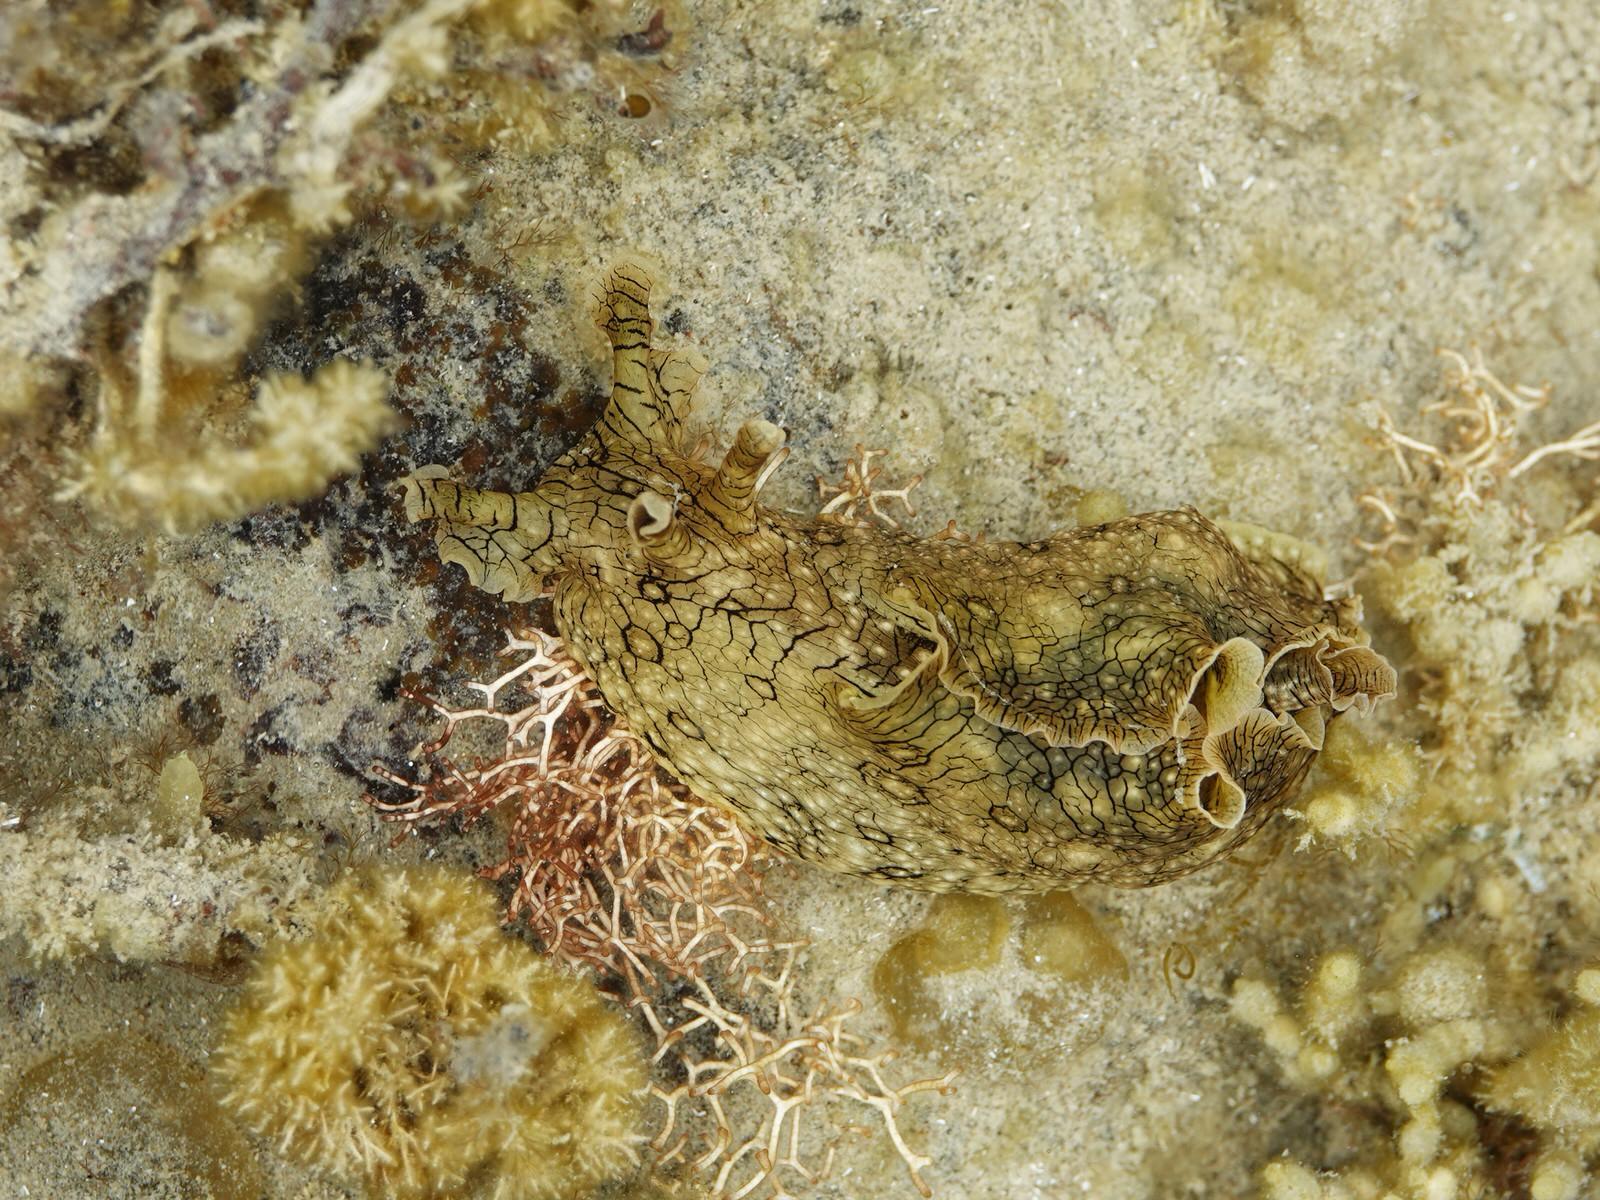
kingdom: Animalia
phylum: Mollusca
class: Gastropoda
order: Aplysiida
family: Aplysiidae
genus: Aplysia
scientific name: Aplysia argus
